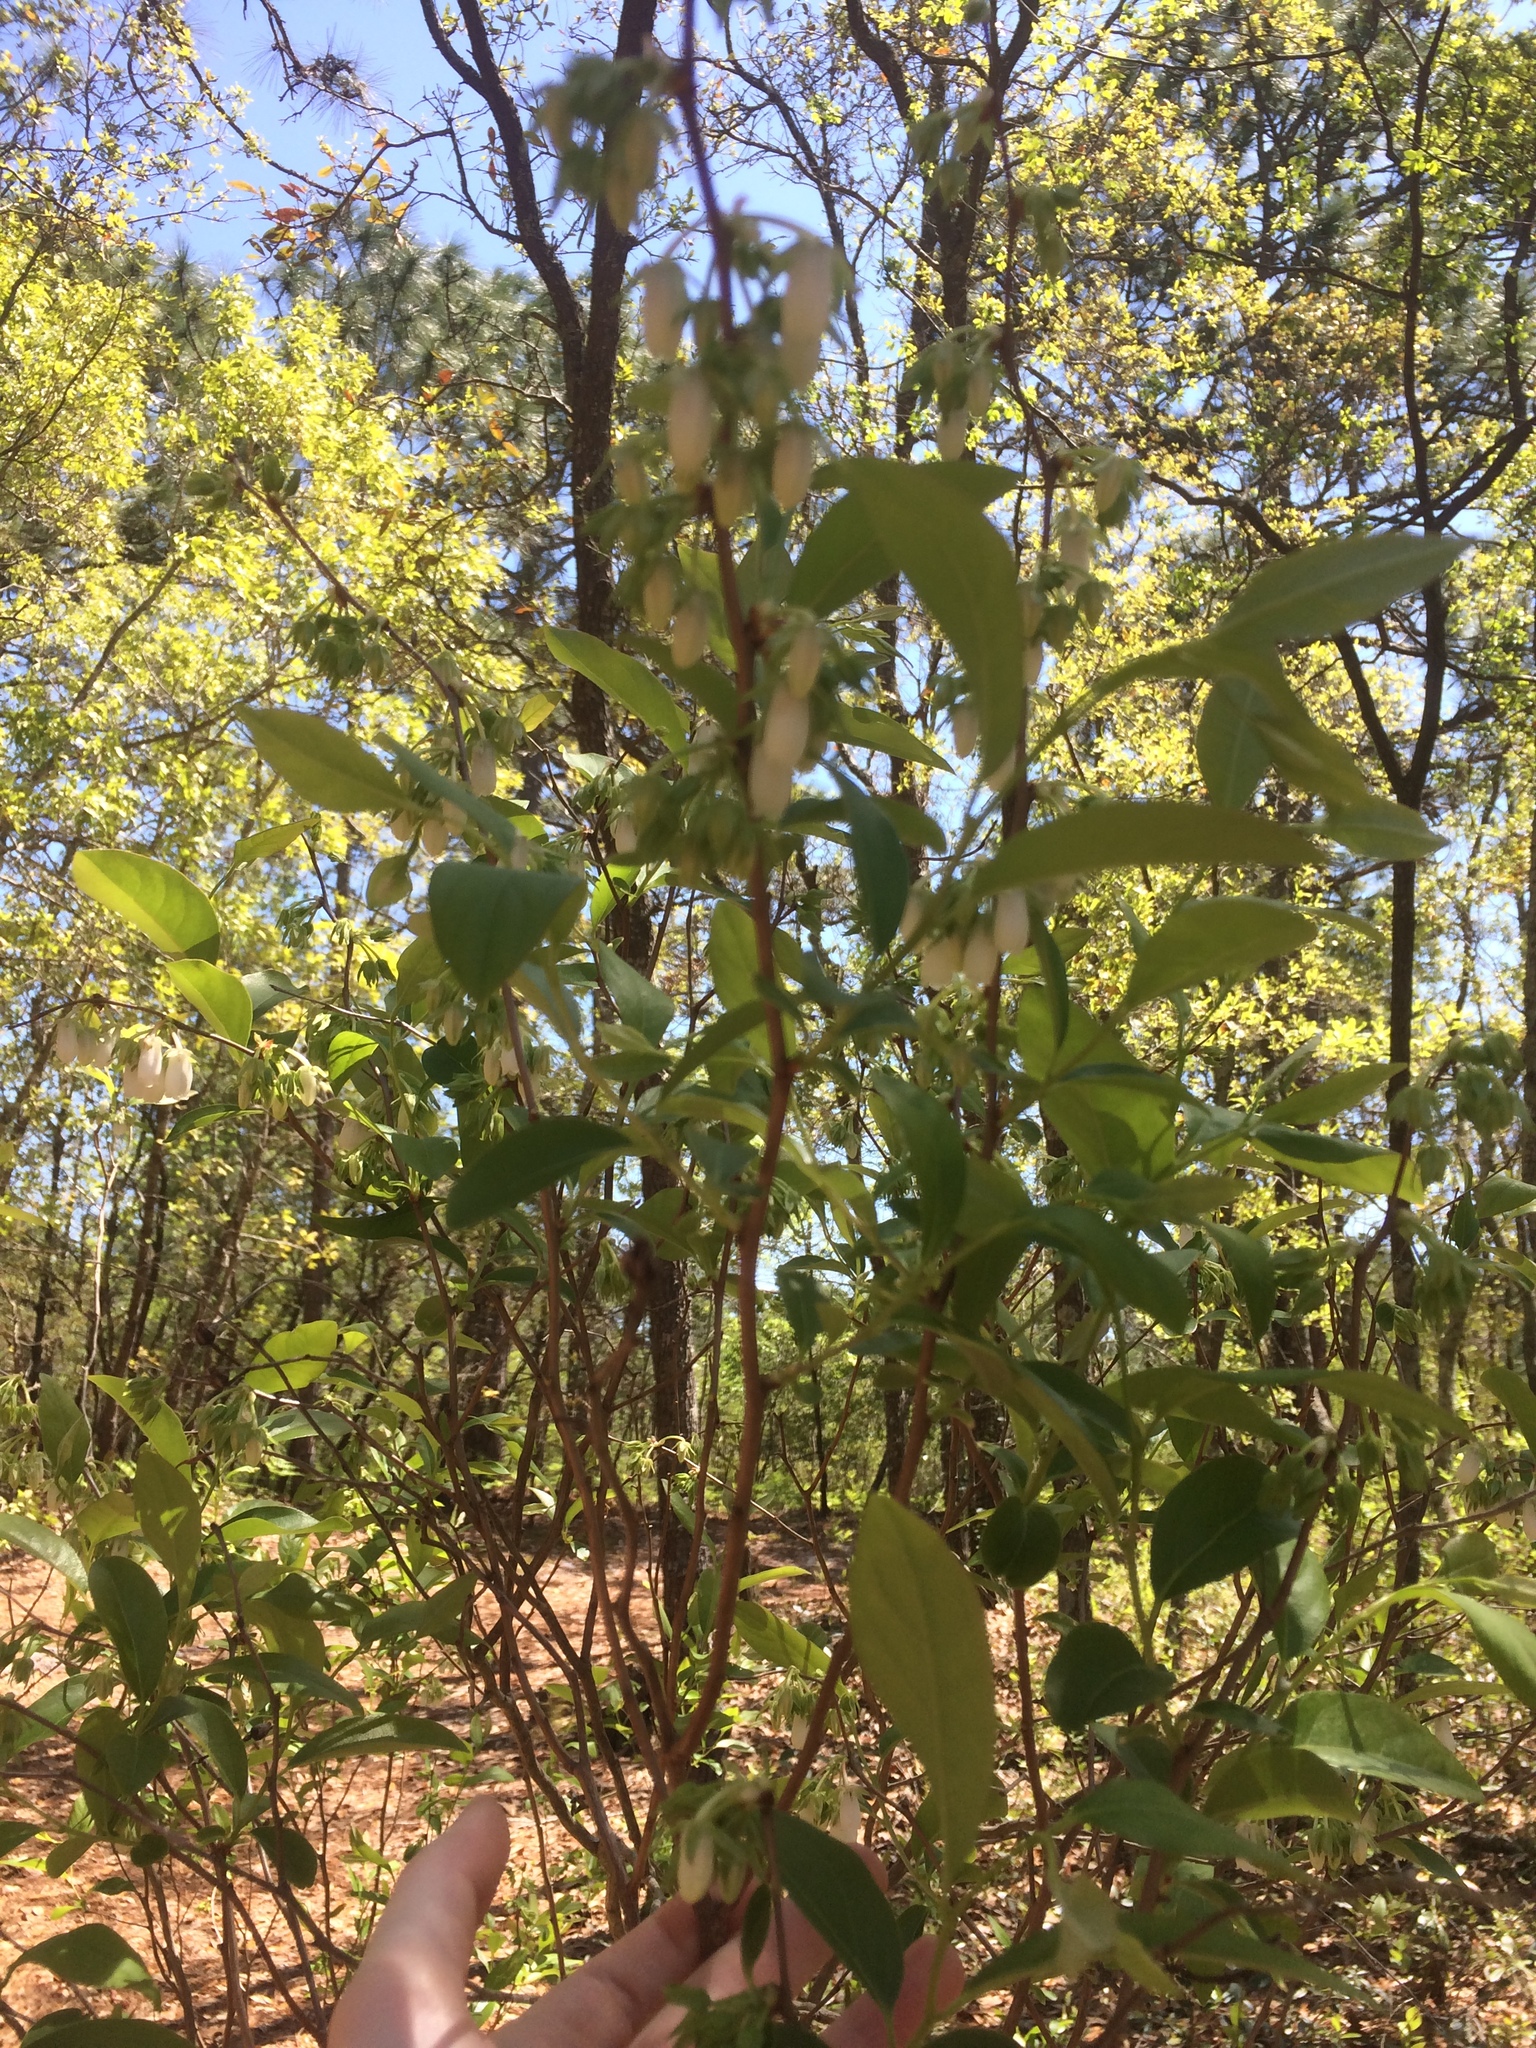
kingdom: Plantae
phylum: Tracheophyta
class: Magnoliopsida
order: Ericales
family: Ericaceae
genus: Lyonia
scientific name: Lyonia mariana
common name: Staggerbush
